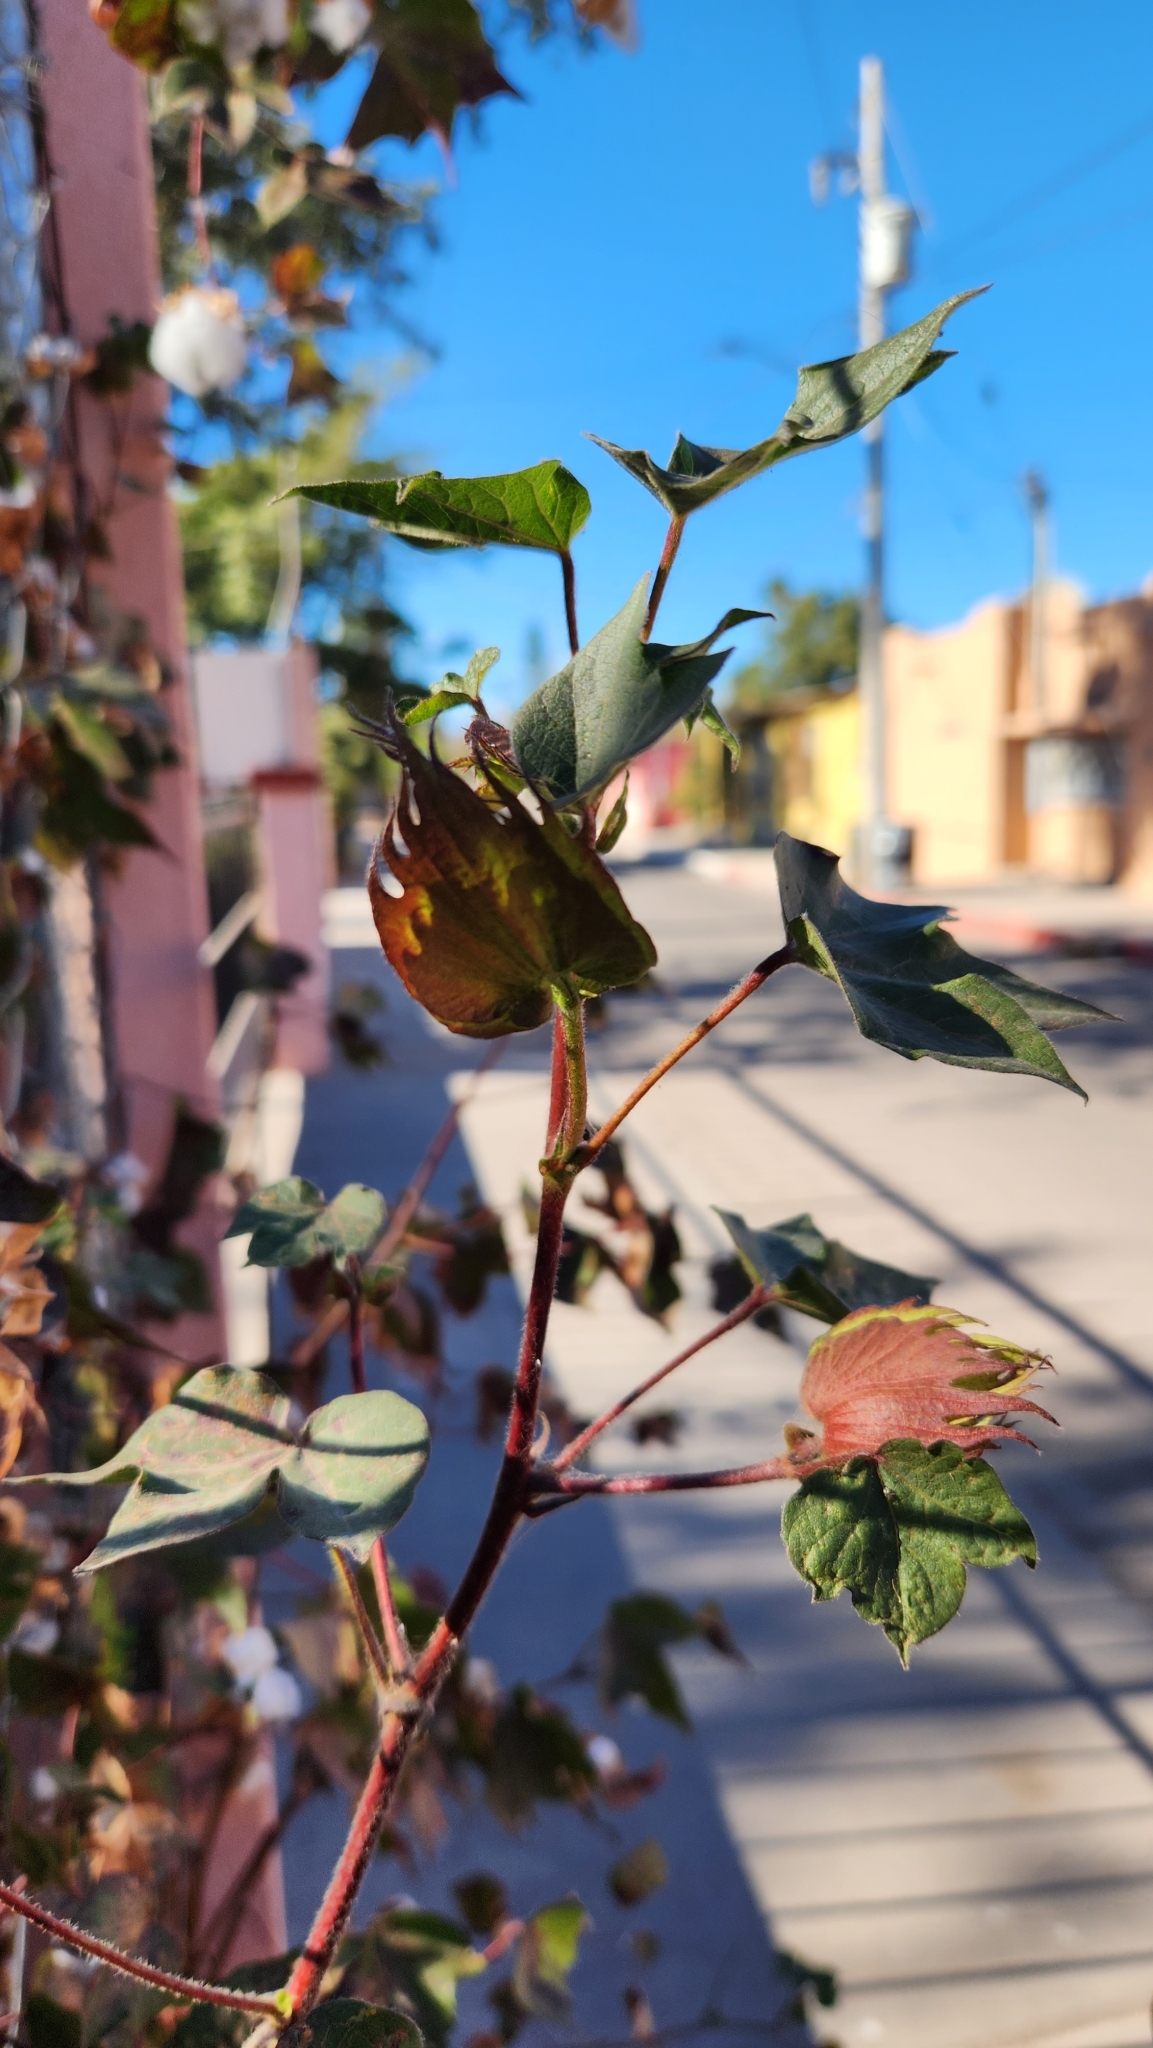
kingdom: Plantae
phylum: Tracheophyta
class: Magnoliopsida
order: Malvales
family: Malvaceae
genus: Gossypium
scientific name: Gossypium hirsutum
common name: Cotton
